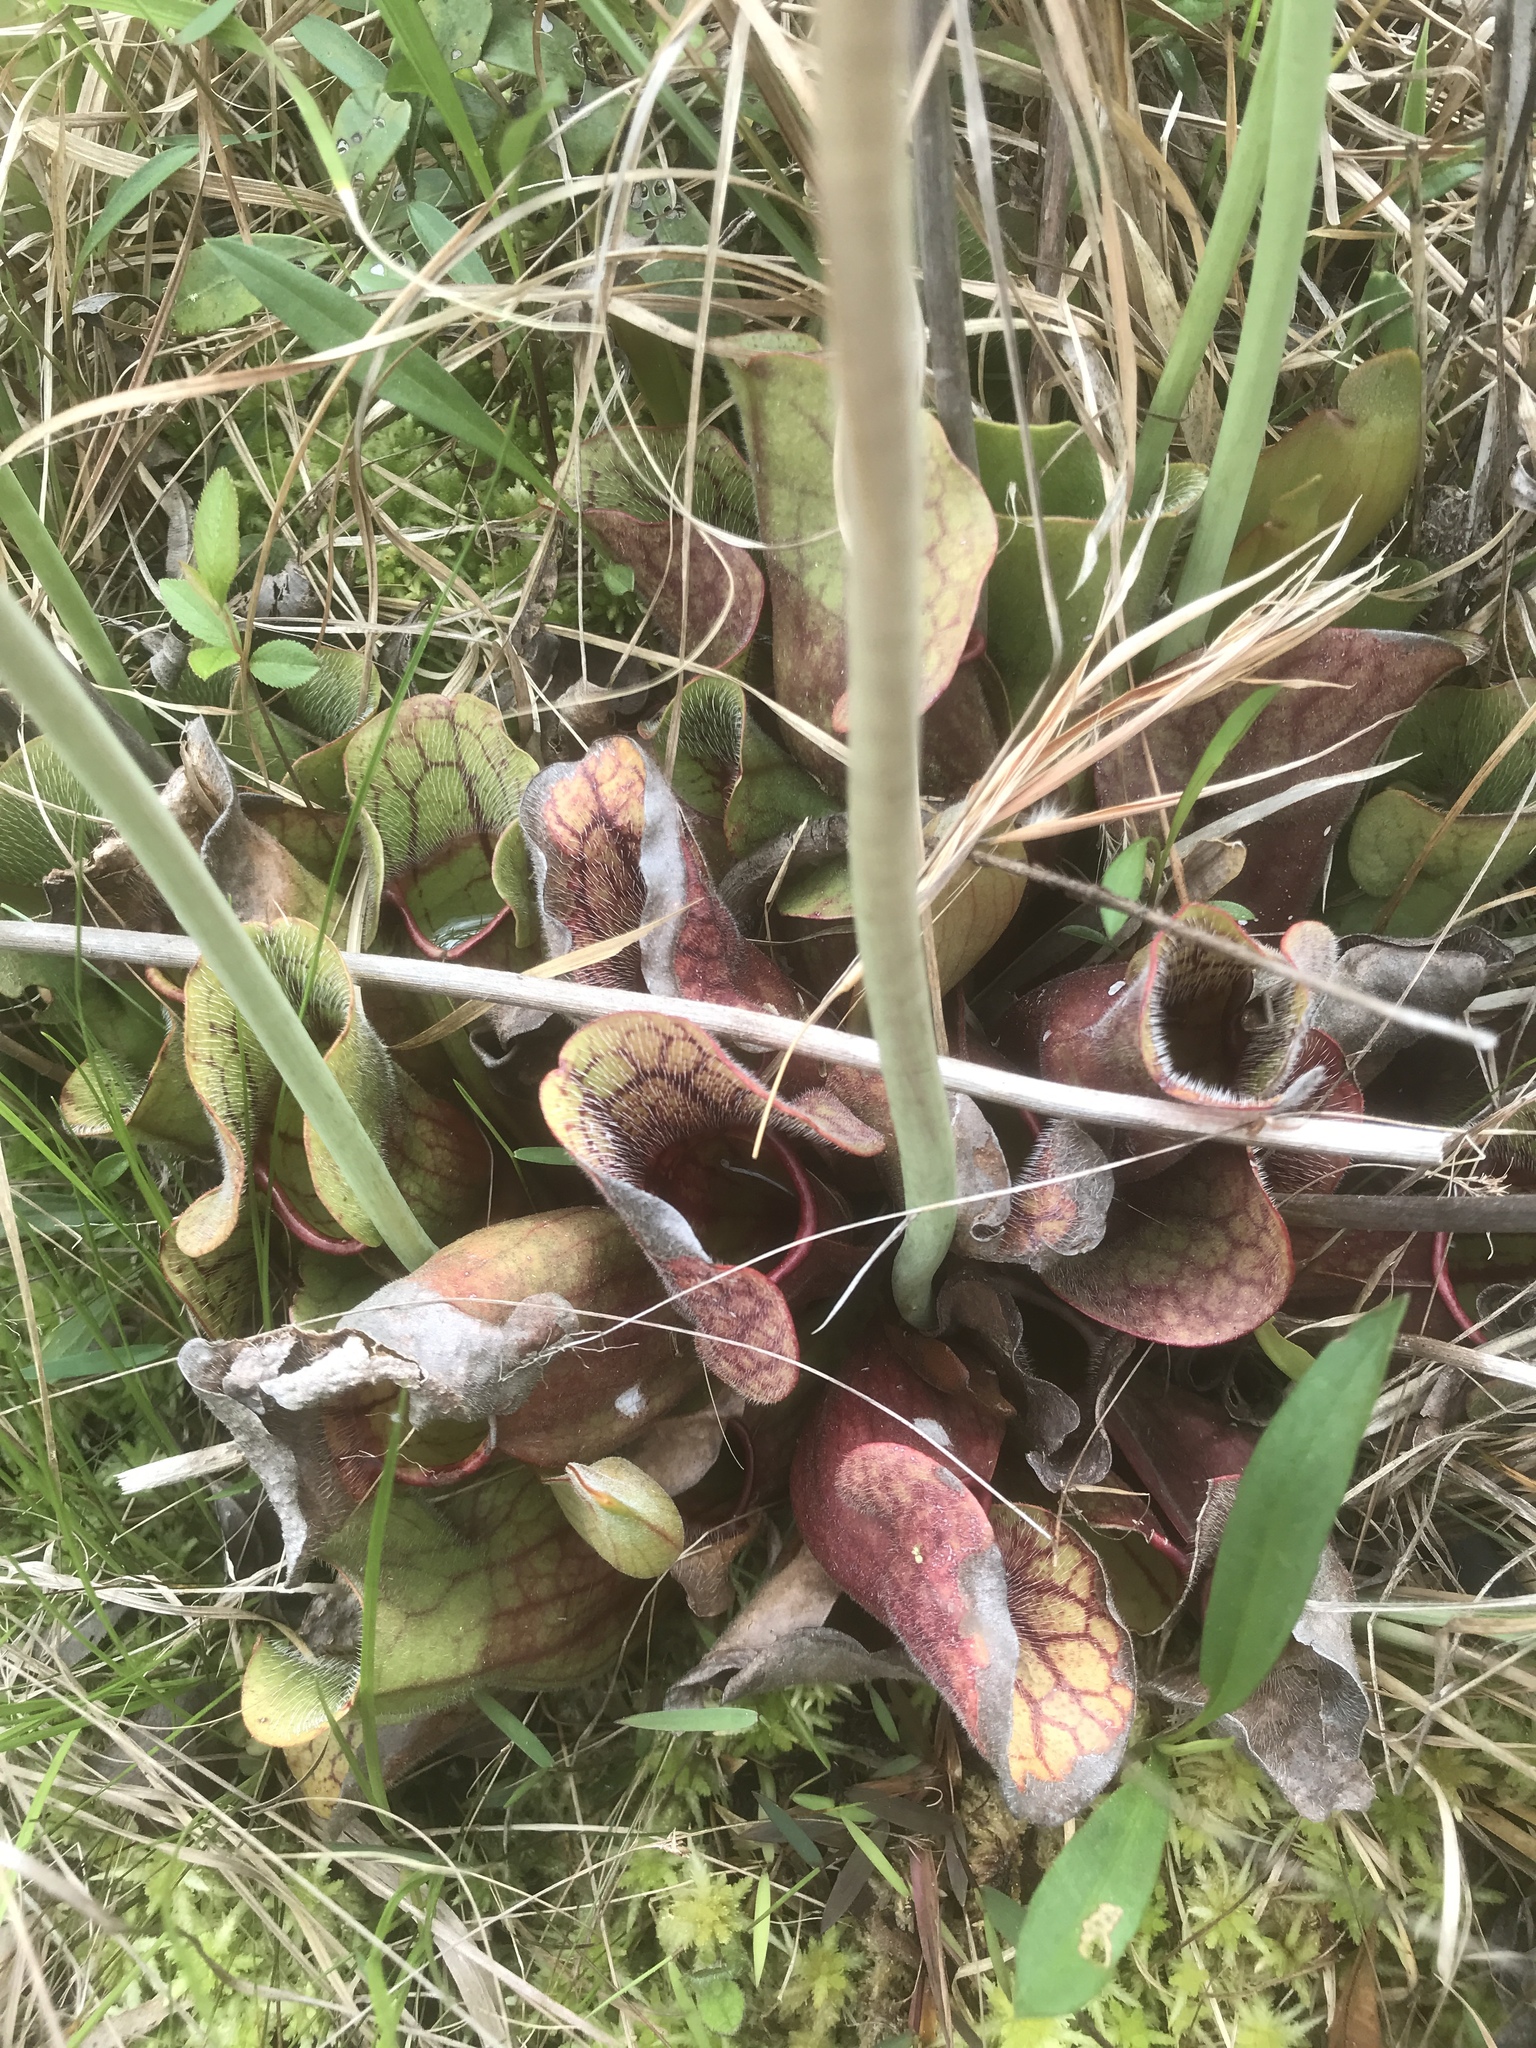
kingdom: Plantae
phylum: Tracheophyta
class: Magnoliopsida
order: Ericales
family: Sarraceniaceae
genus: Sarracenia
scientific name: Sarracenia purpurea
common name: Pitcherplant
